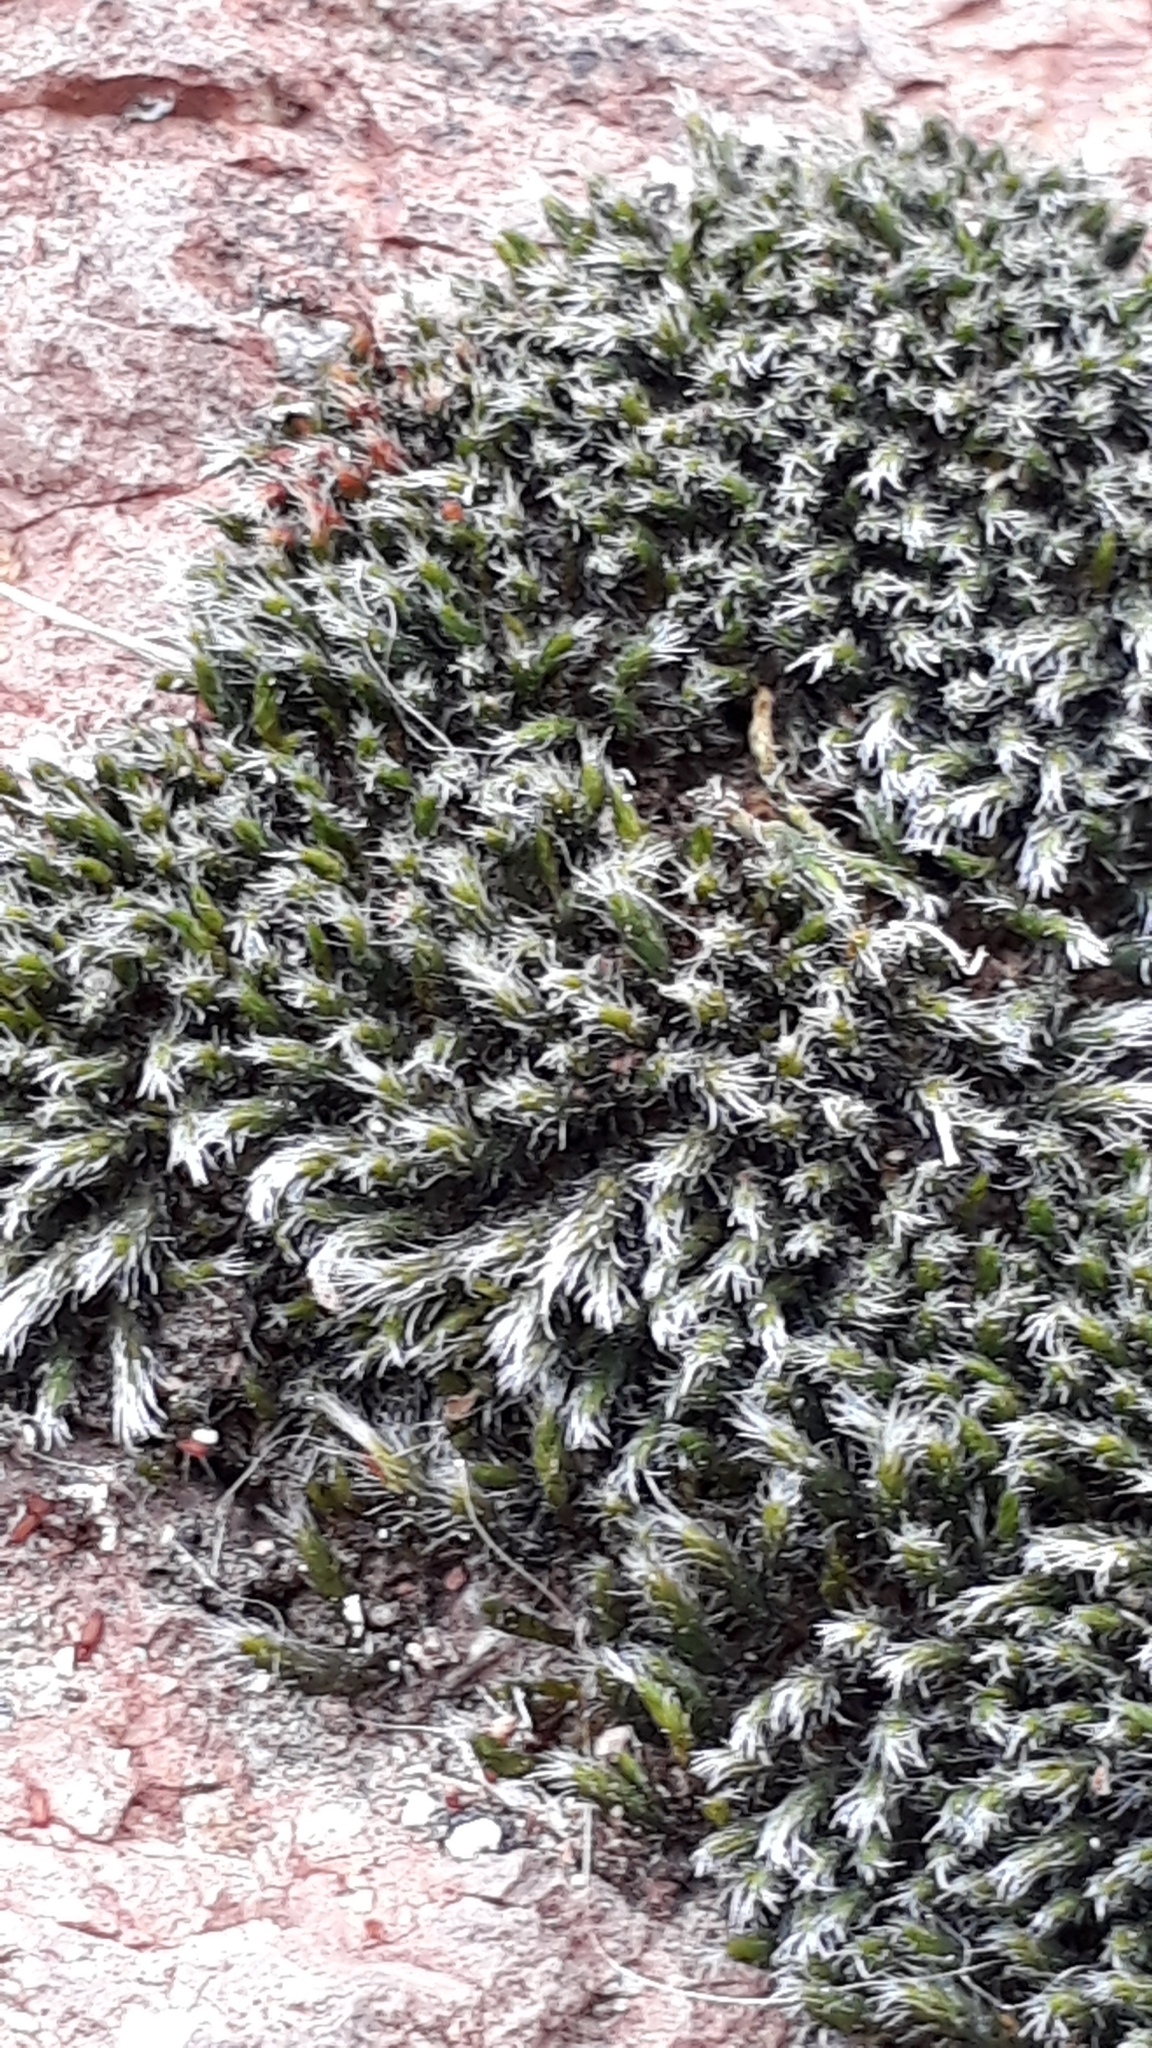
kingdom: Plantae
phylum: Bryophyta
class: Bryopsida
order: Bryales
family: Bryaceae
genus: Bryum
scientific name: Bryum argenteum
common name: Silver-moss
